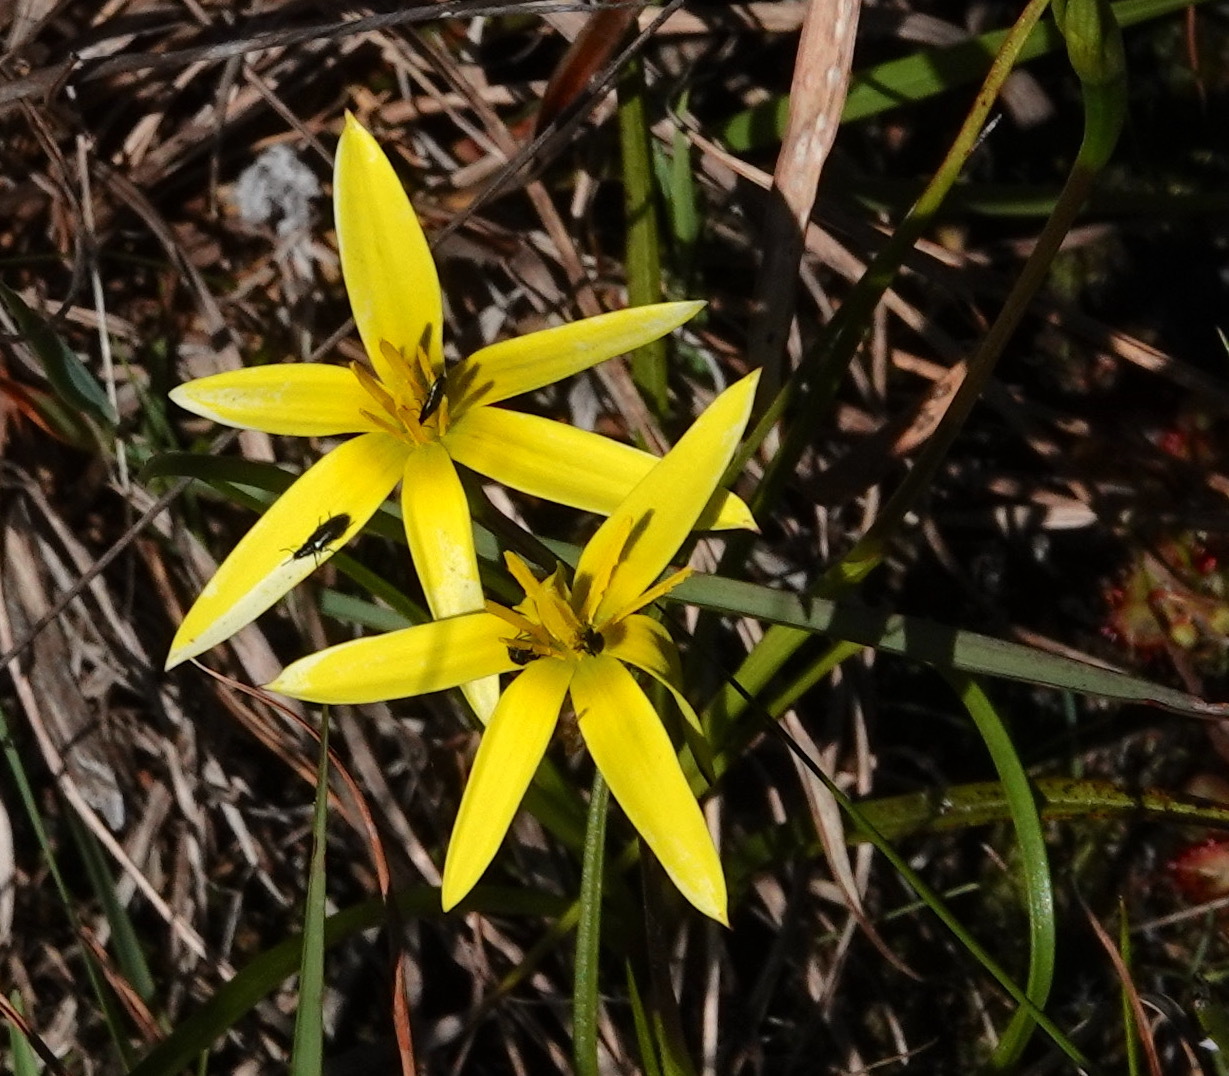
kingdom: Plantae
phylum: Tracheophyta
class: Liliopsida
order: Asparagales
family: Hypoxidaceae
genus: Pauridia
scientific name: Pauridia capensis
